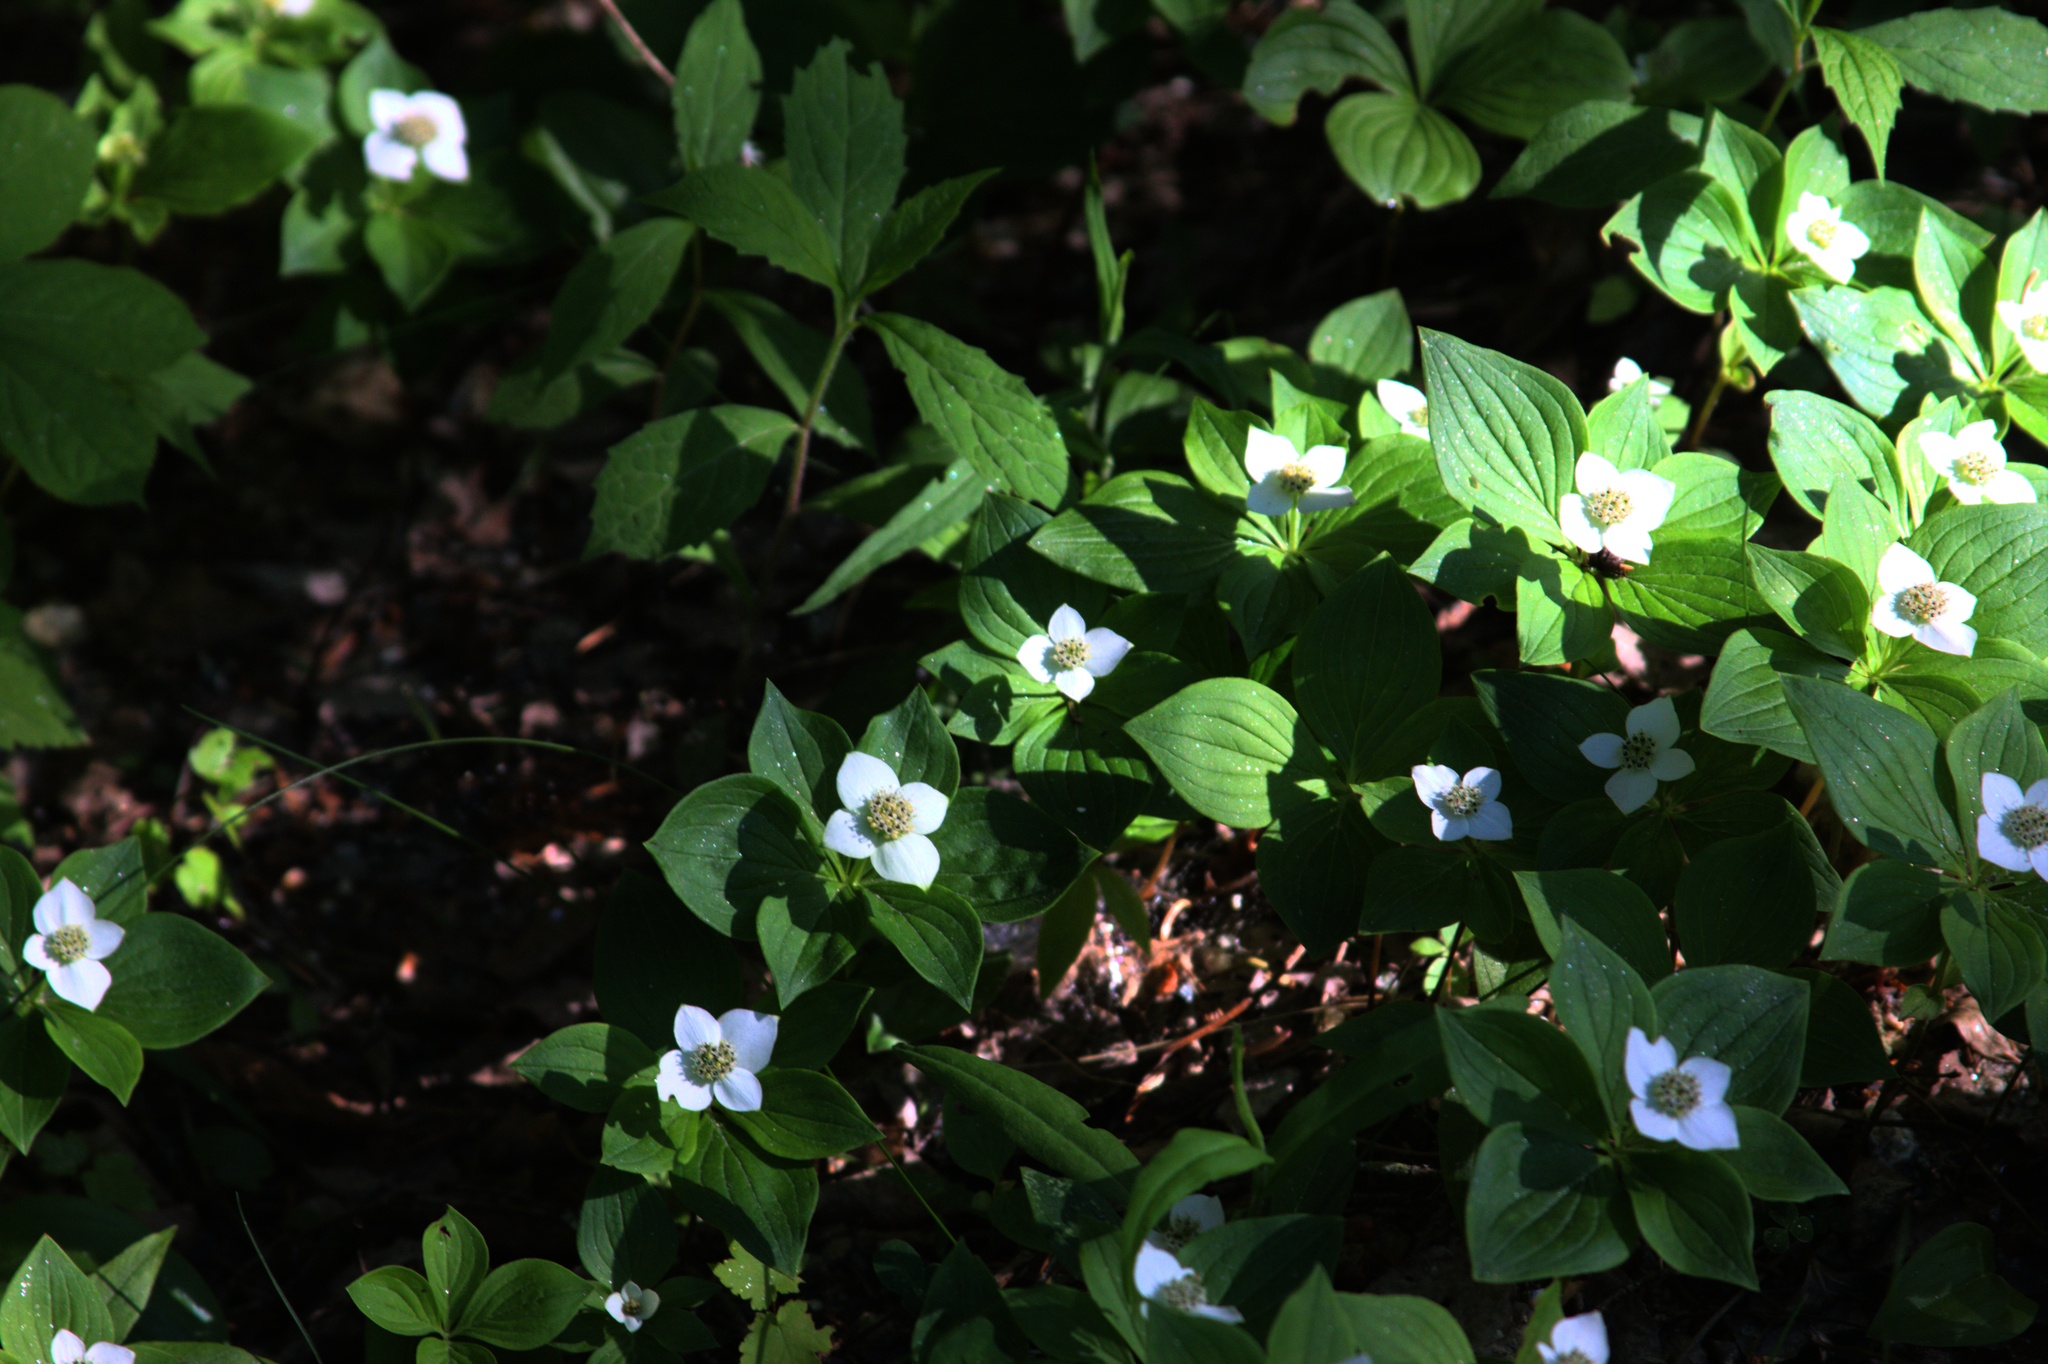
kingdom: Plantae
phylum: Tracheophyta
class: Magnoliopsida
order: Cornales
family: Cornaceae
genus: Cornus
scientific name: Cornus canadensis
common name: Creeping dogwood
